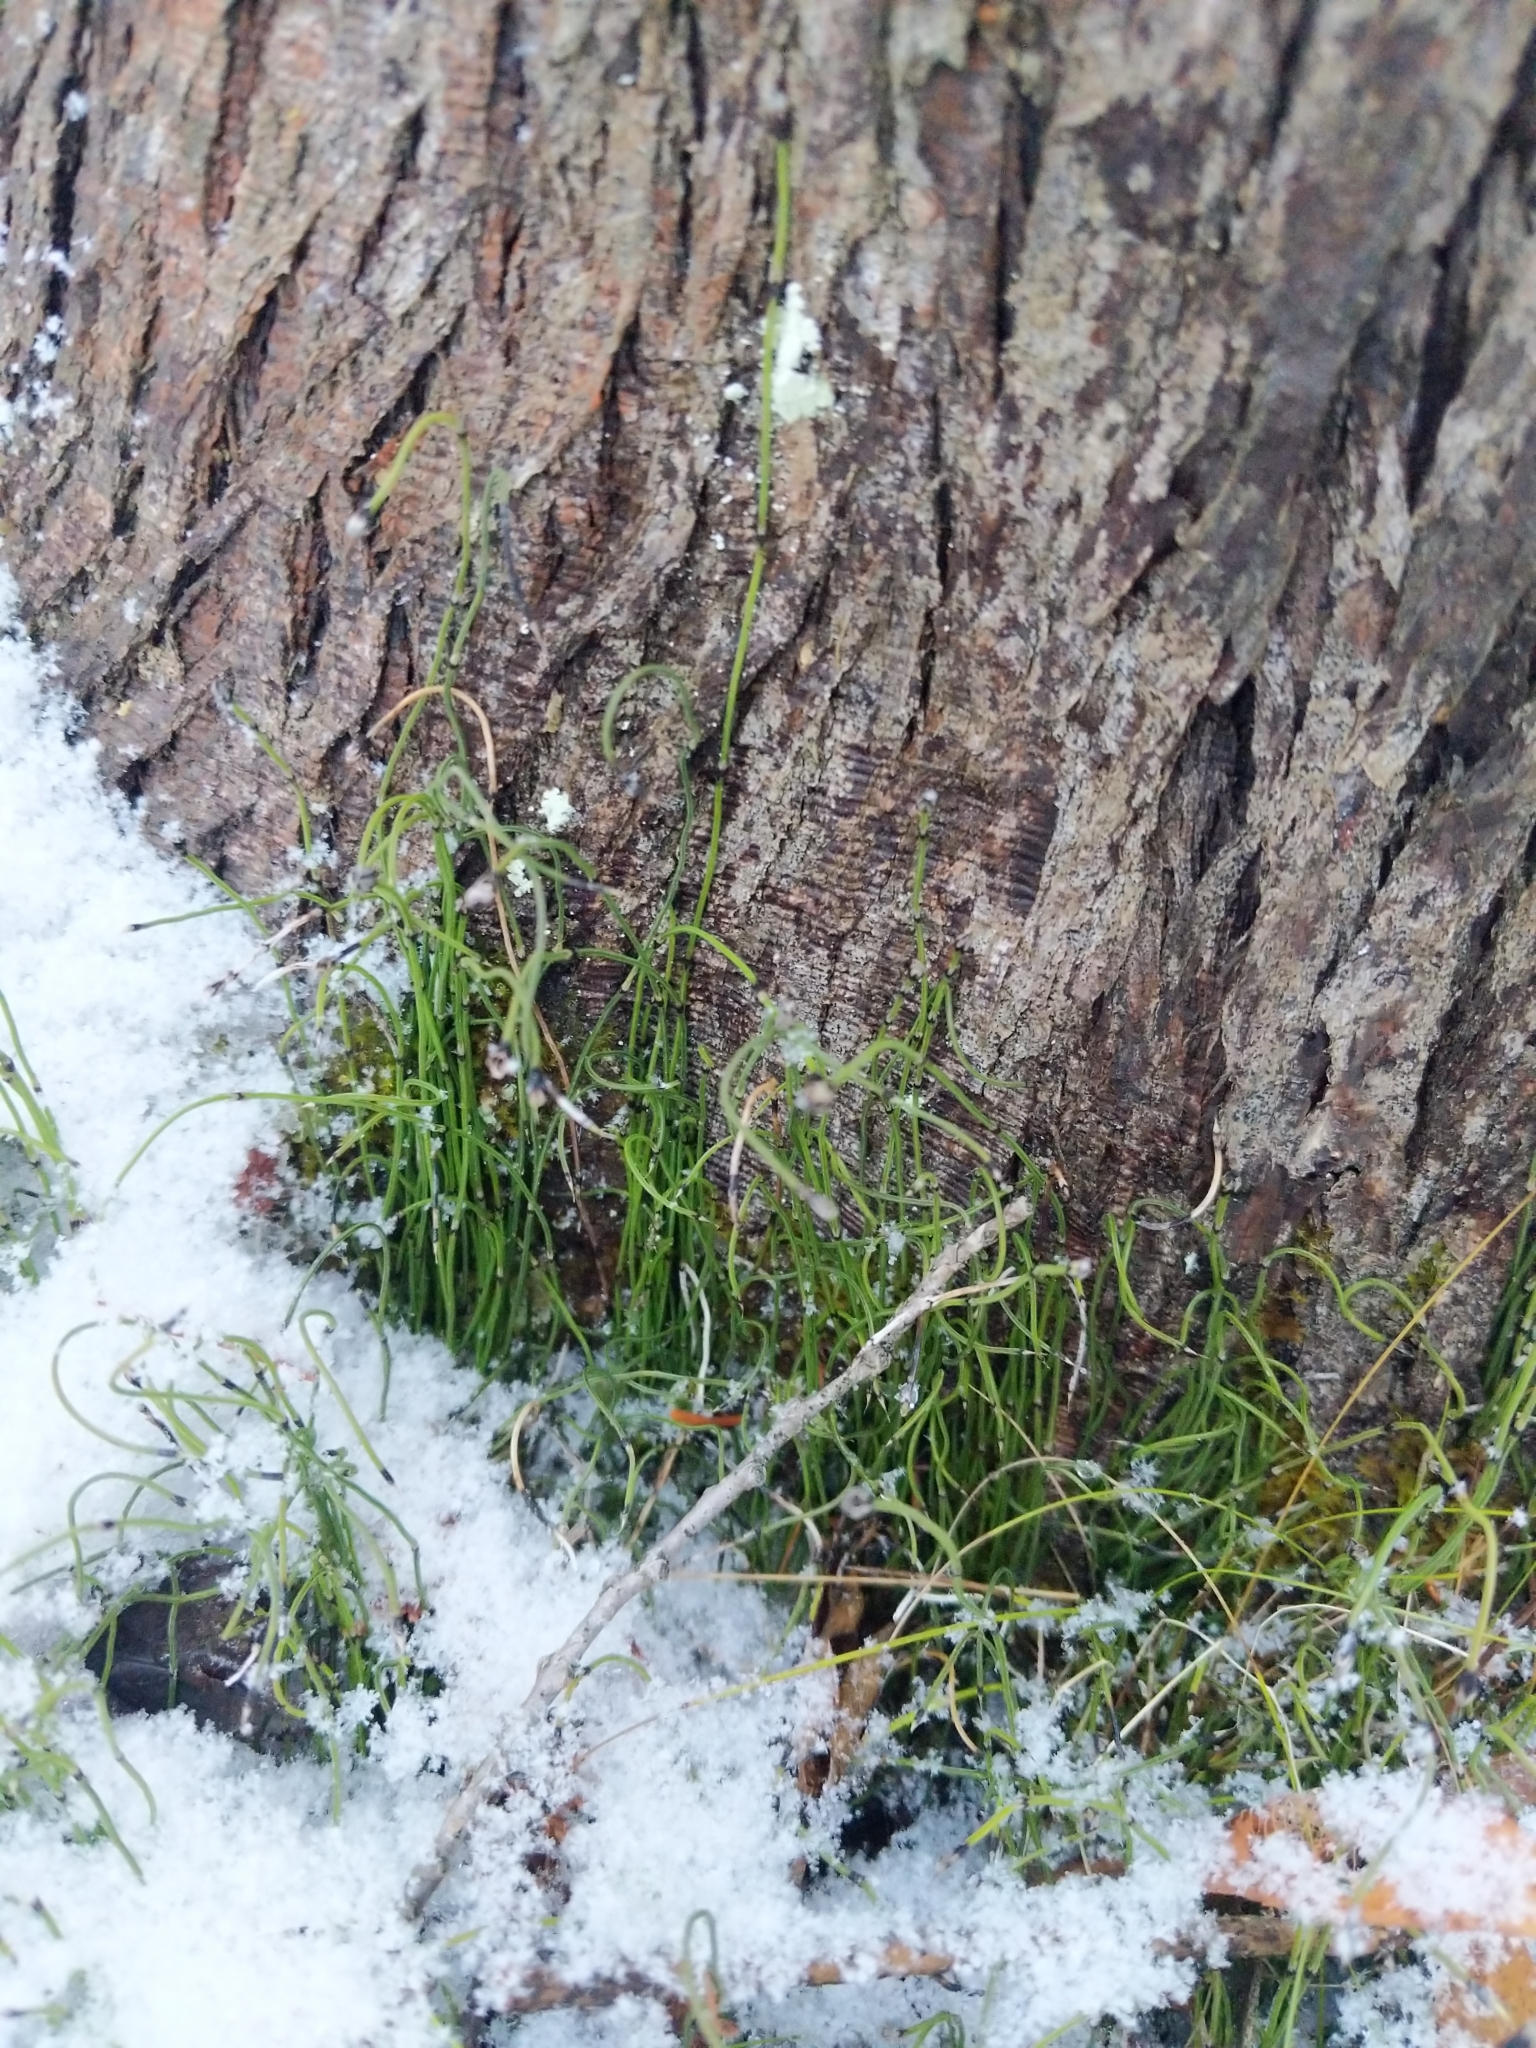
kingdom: Plantae
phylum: Tracheophyta
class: Polypodiopsida
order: Equisetales
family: Equisetaceae
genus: Equisetum
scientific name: Equisetum scirpoides
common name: Delicate horsetail
